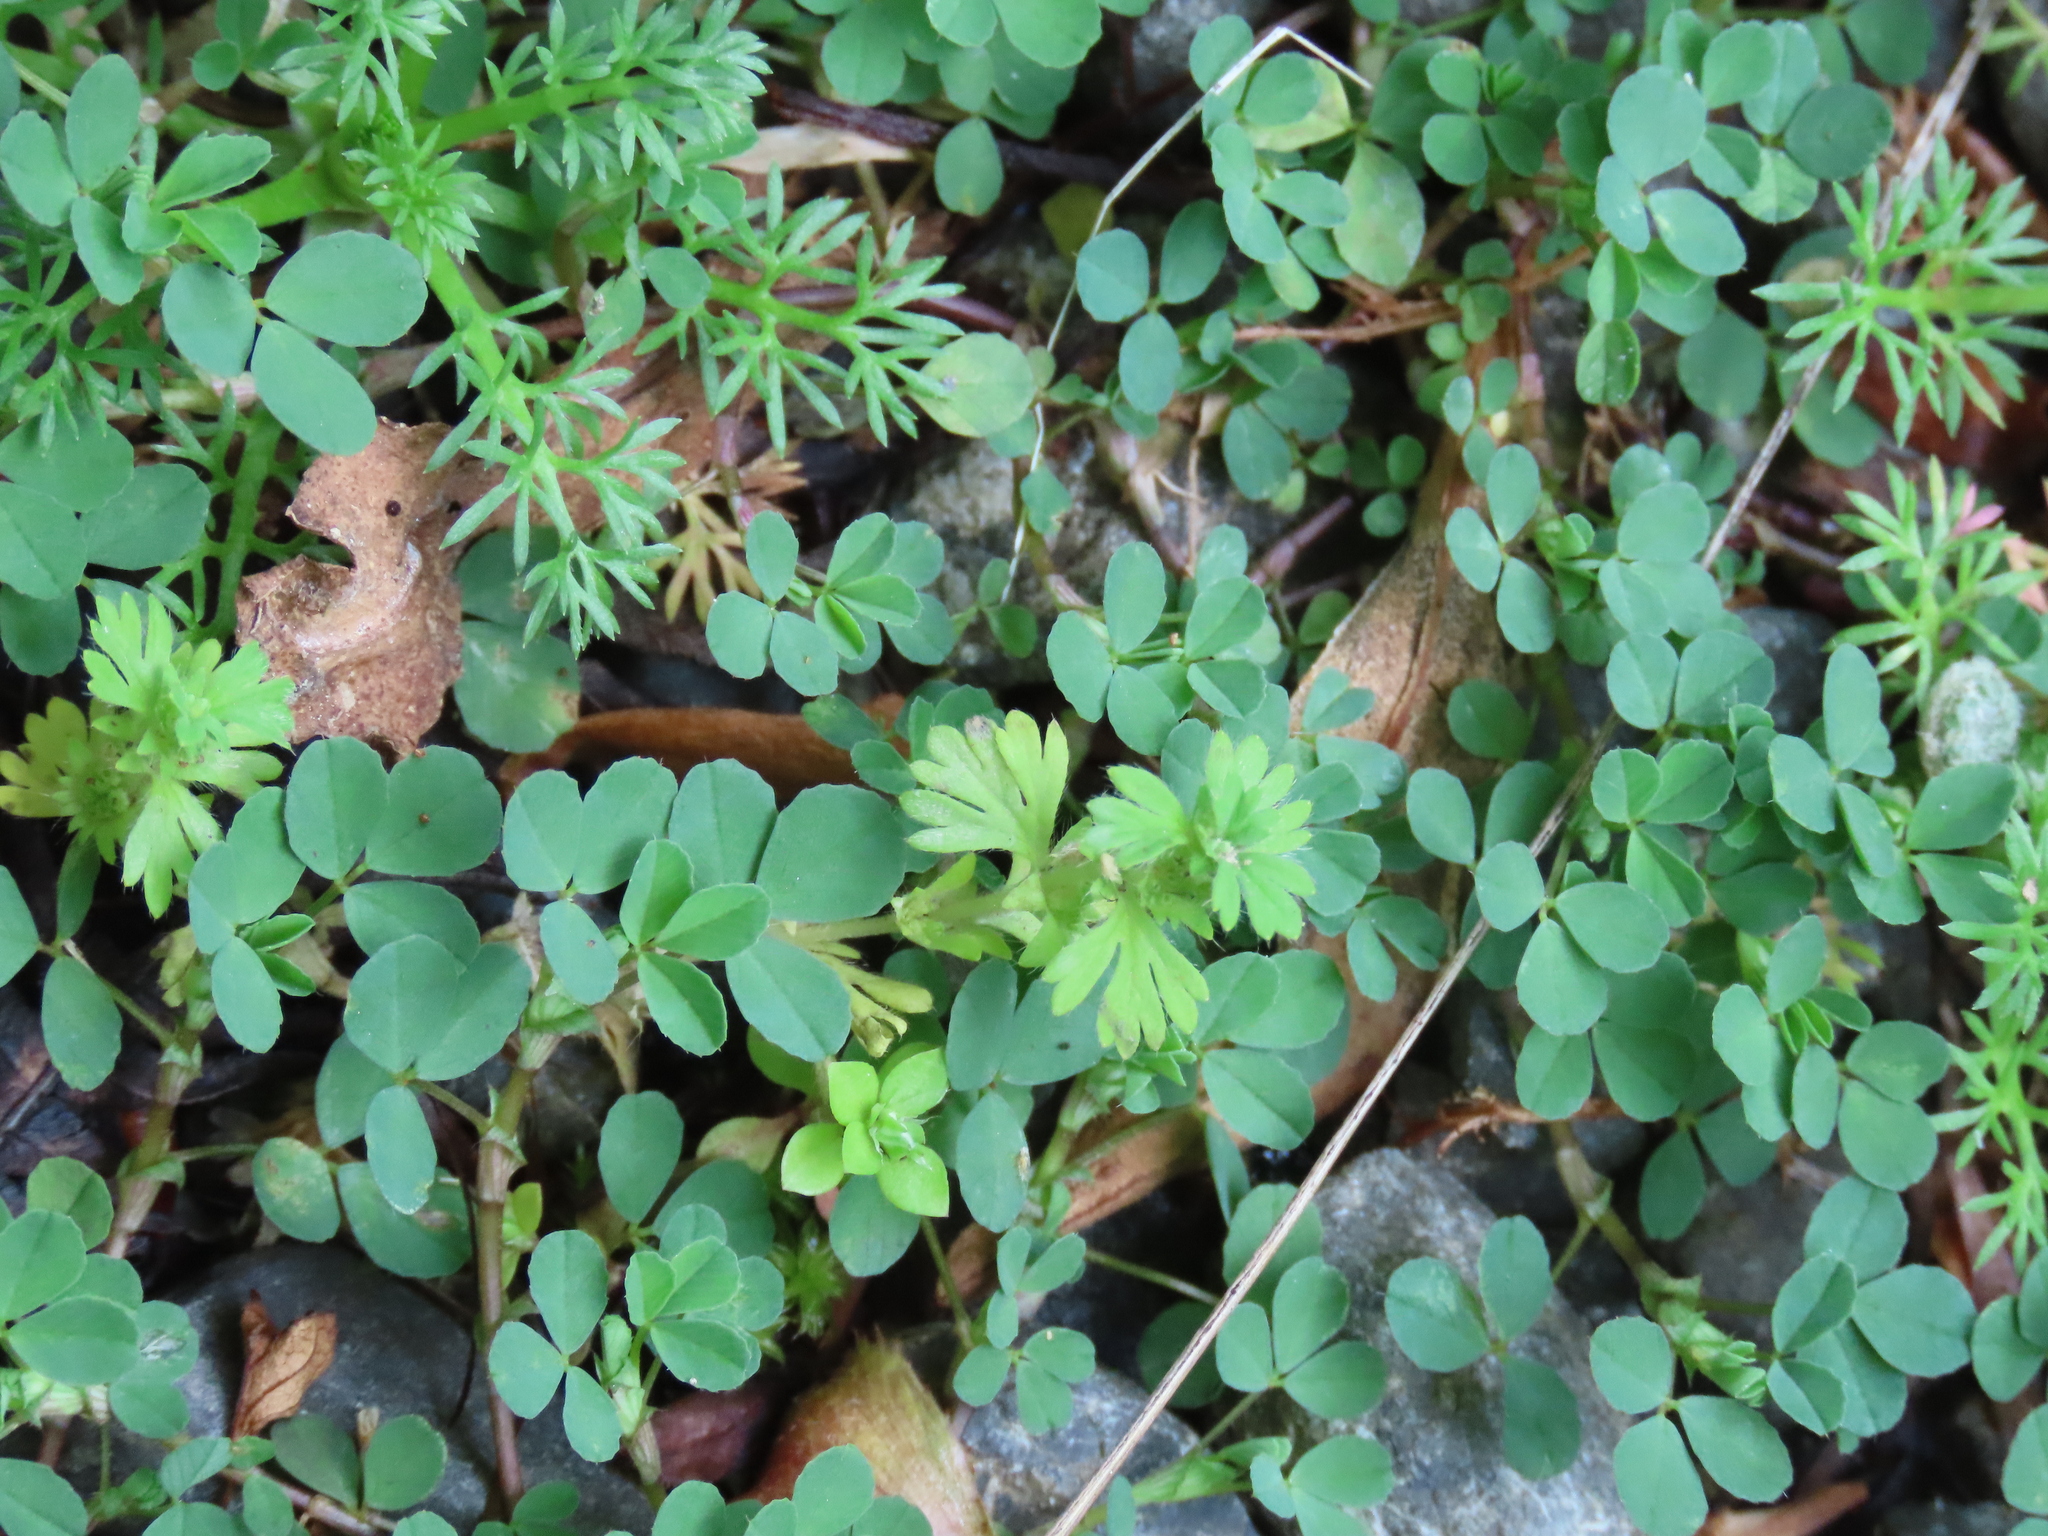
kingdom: Plantae
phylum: Tracheophyta
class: Magnoliopsida
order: Fabales
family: Fabaceae
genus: Trifolium
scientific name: Trifolium dubium
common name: Suckling clover
